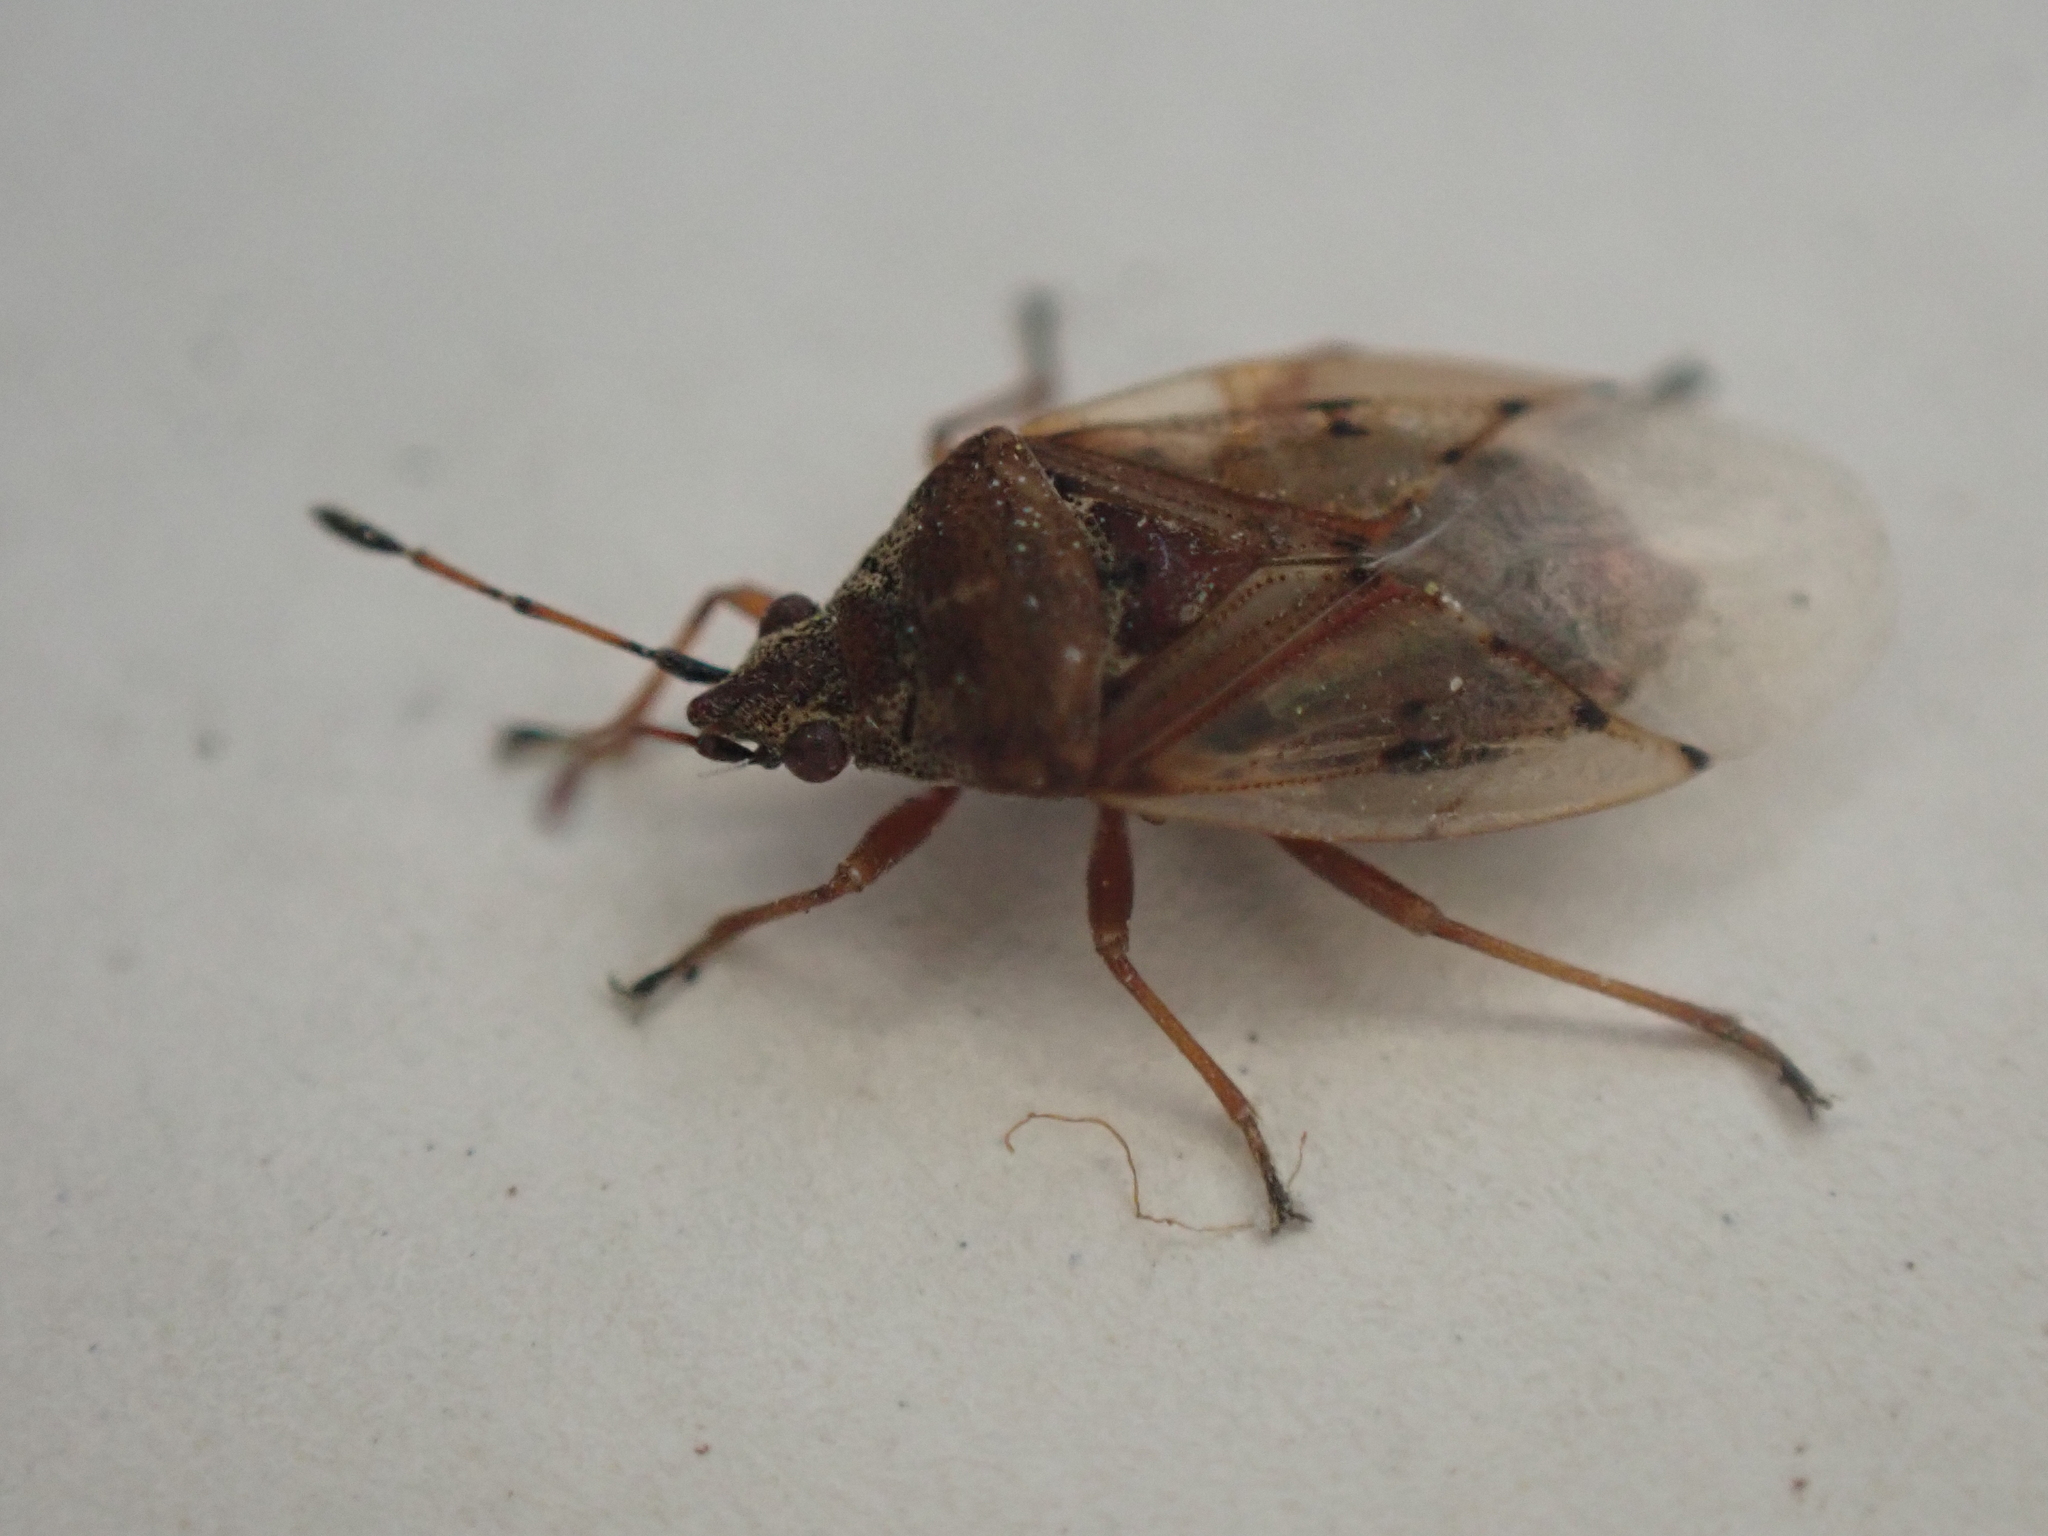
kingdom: Animalia
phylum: Arthropoda
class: Insecta
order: Hemiptera
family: Lygaeidae
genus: Kleidocerys
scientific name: Kleidocerys resedae
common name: Birch catkin bug
